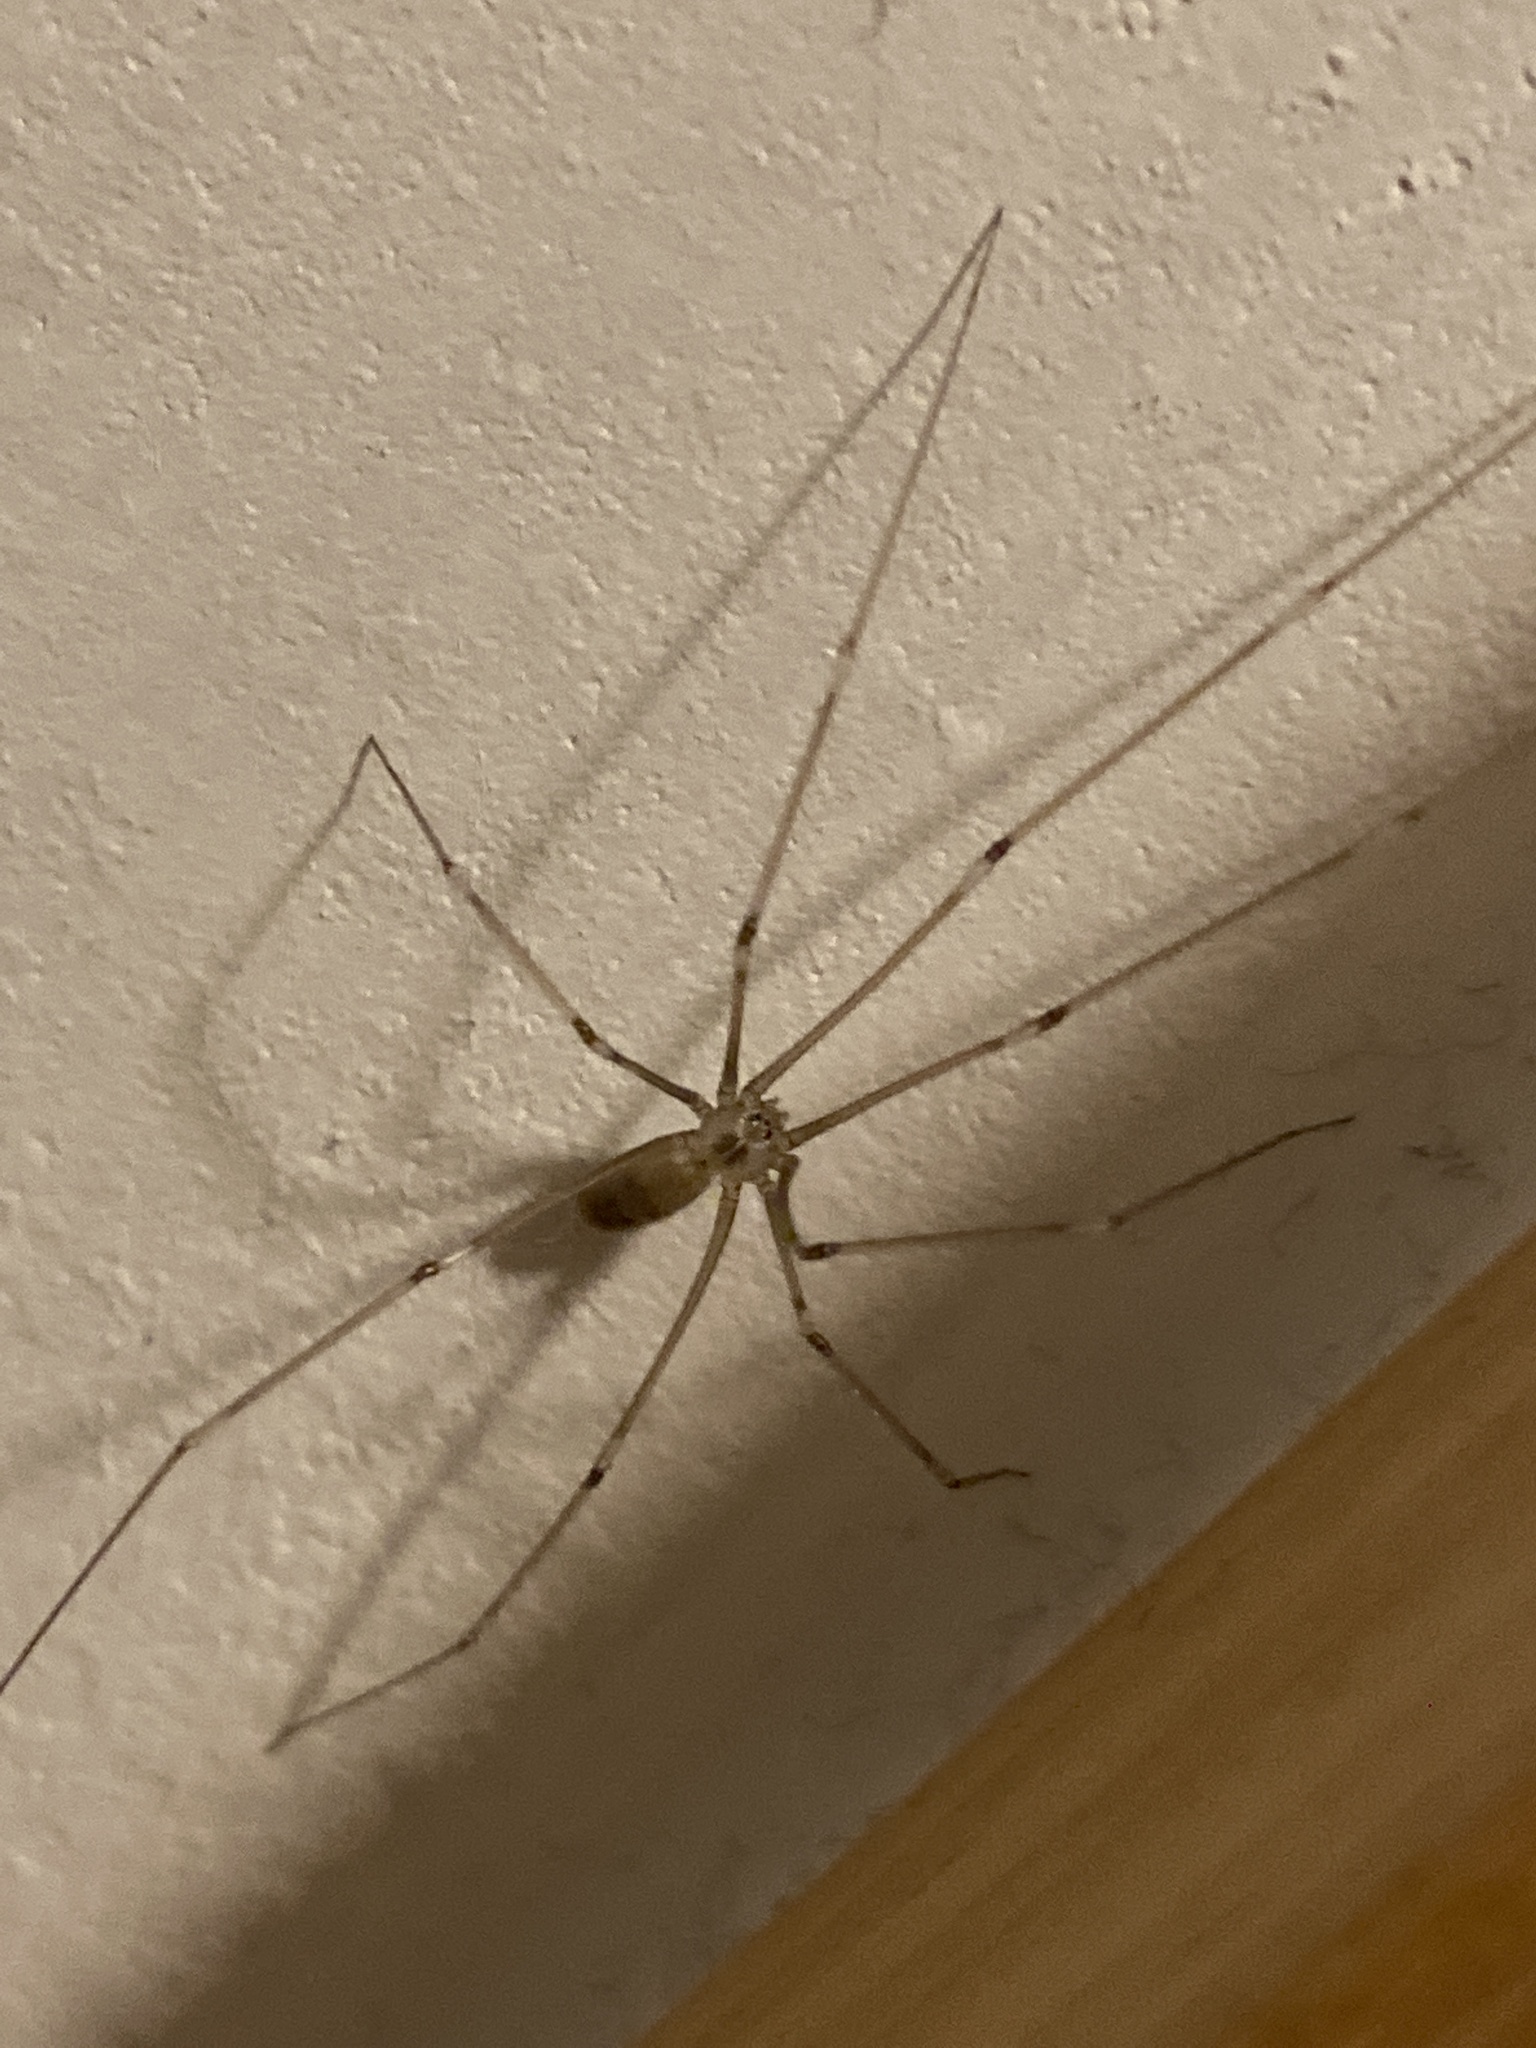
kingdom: Animalia
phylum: Arthropoda
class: Arachnida
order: Araneae
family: Pholcidae
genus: Pholcus
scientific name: Pholcus phalangioides
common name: Longbodied cellar spider
